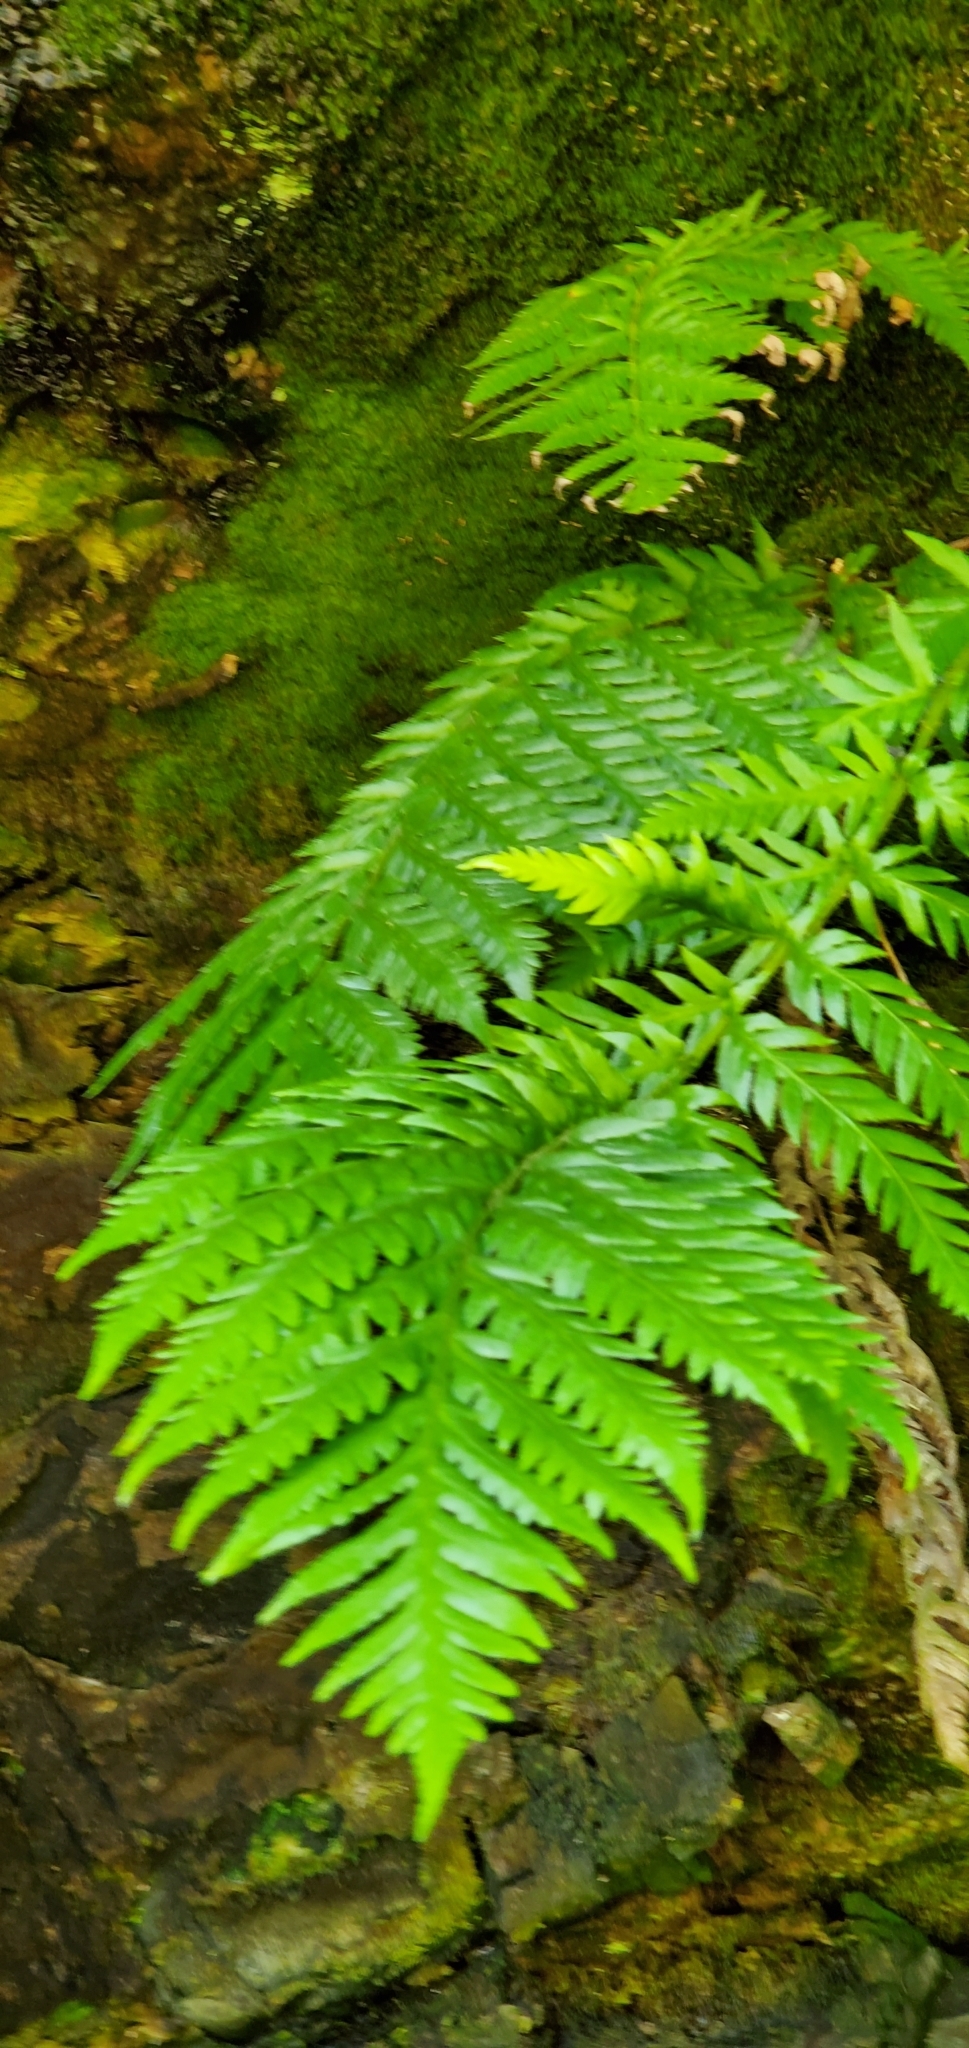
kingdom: Plantae
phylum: Tracheophyta
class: Polypodiopsida
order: Polypodiales
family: Blechnaceae
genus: Woodwardia
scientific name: Woodwardia fimbriata
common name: Giant chain fern
